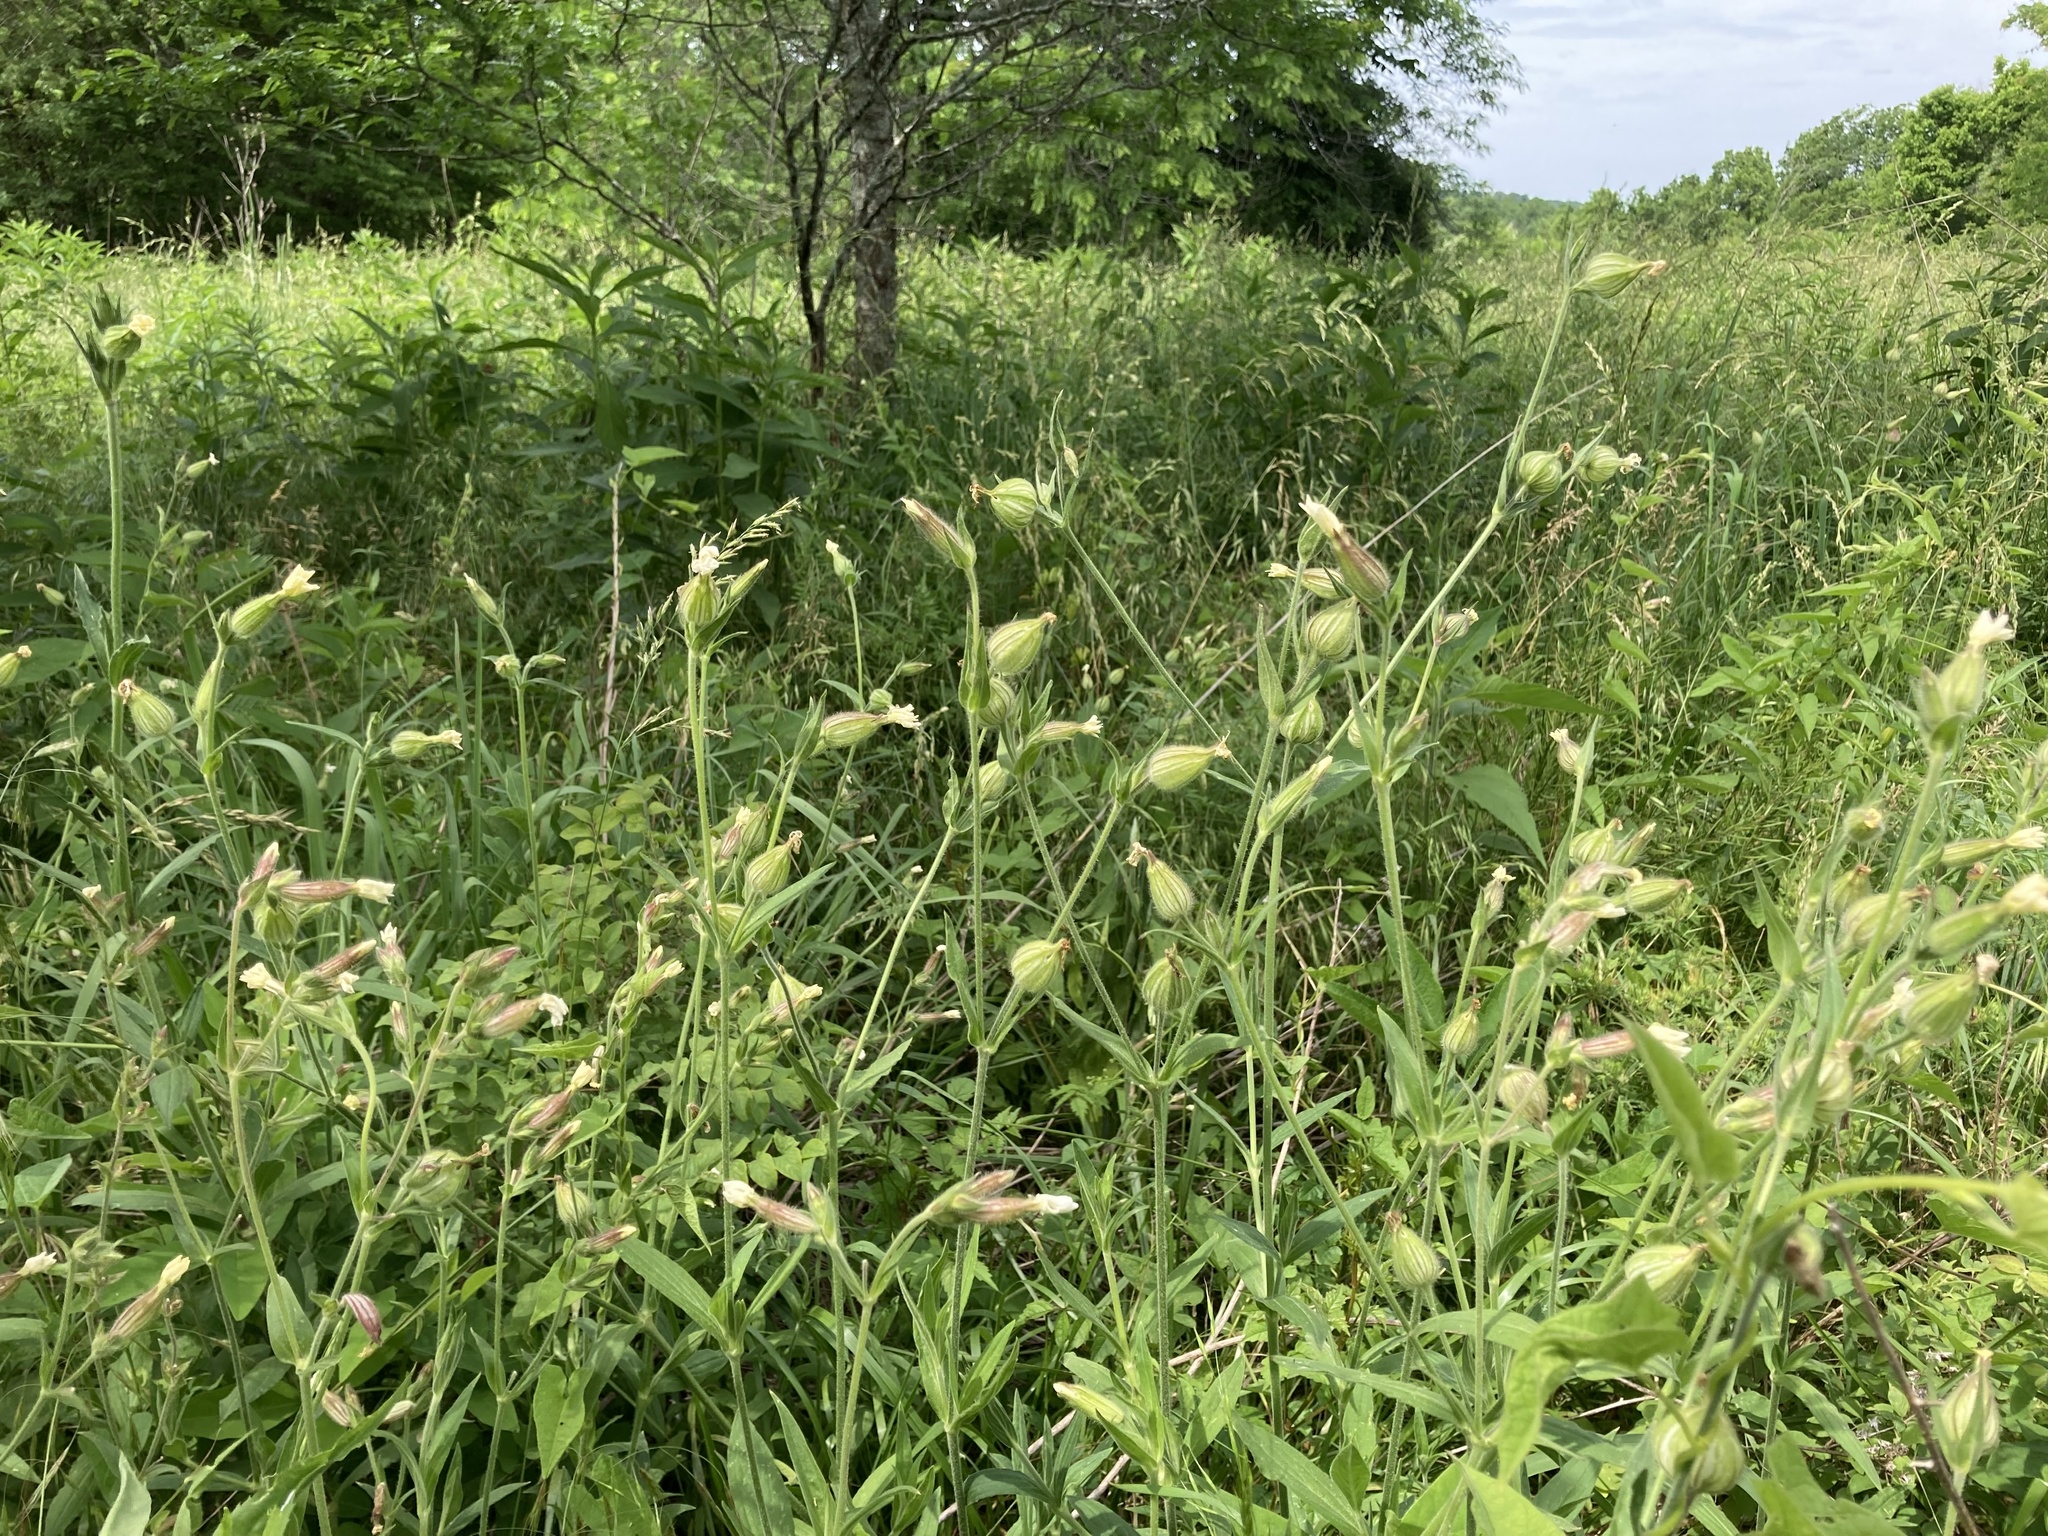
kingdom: Plantae
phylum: Tracheophyta
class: Magnoliopsida
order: Caryophyllales
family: Caryophyllaceae
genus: Silene
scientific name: Silene latifolia
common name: White campion
